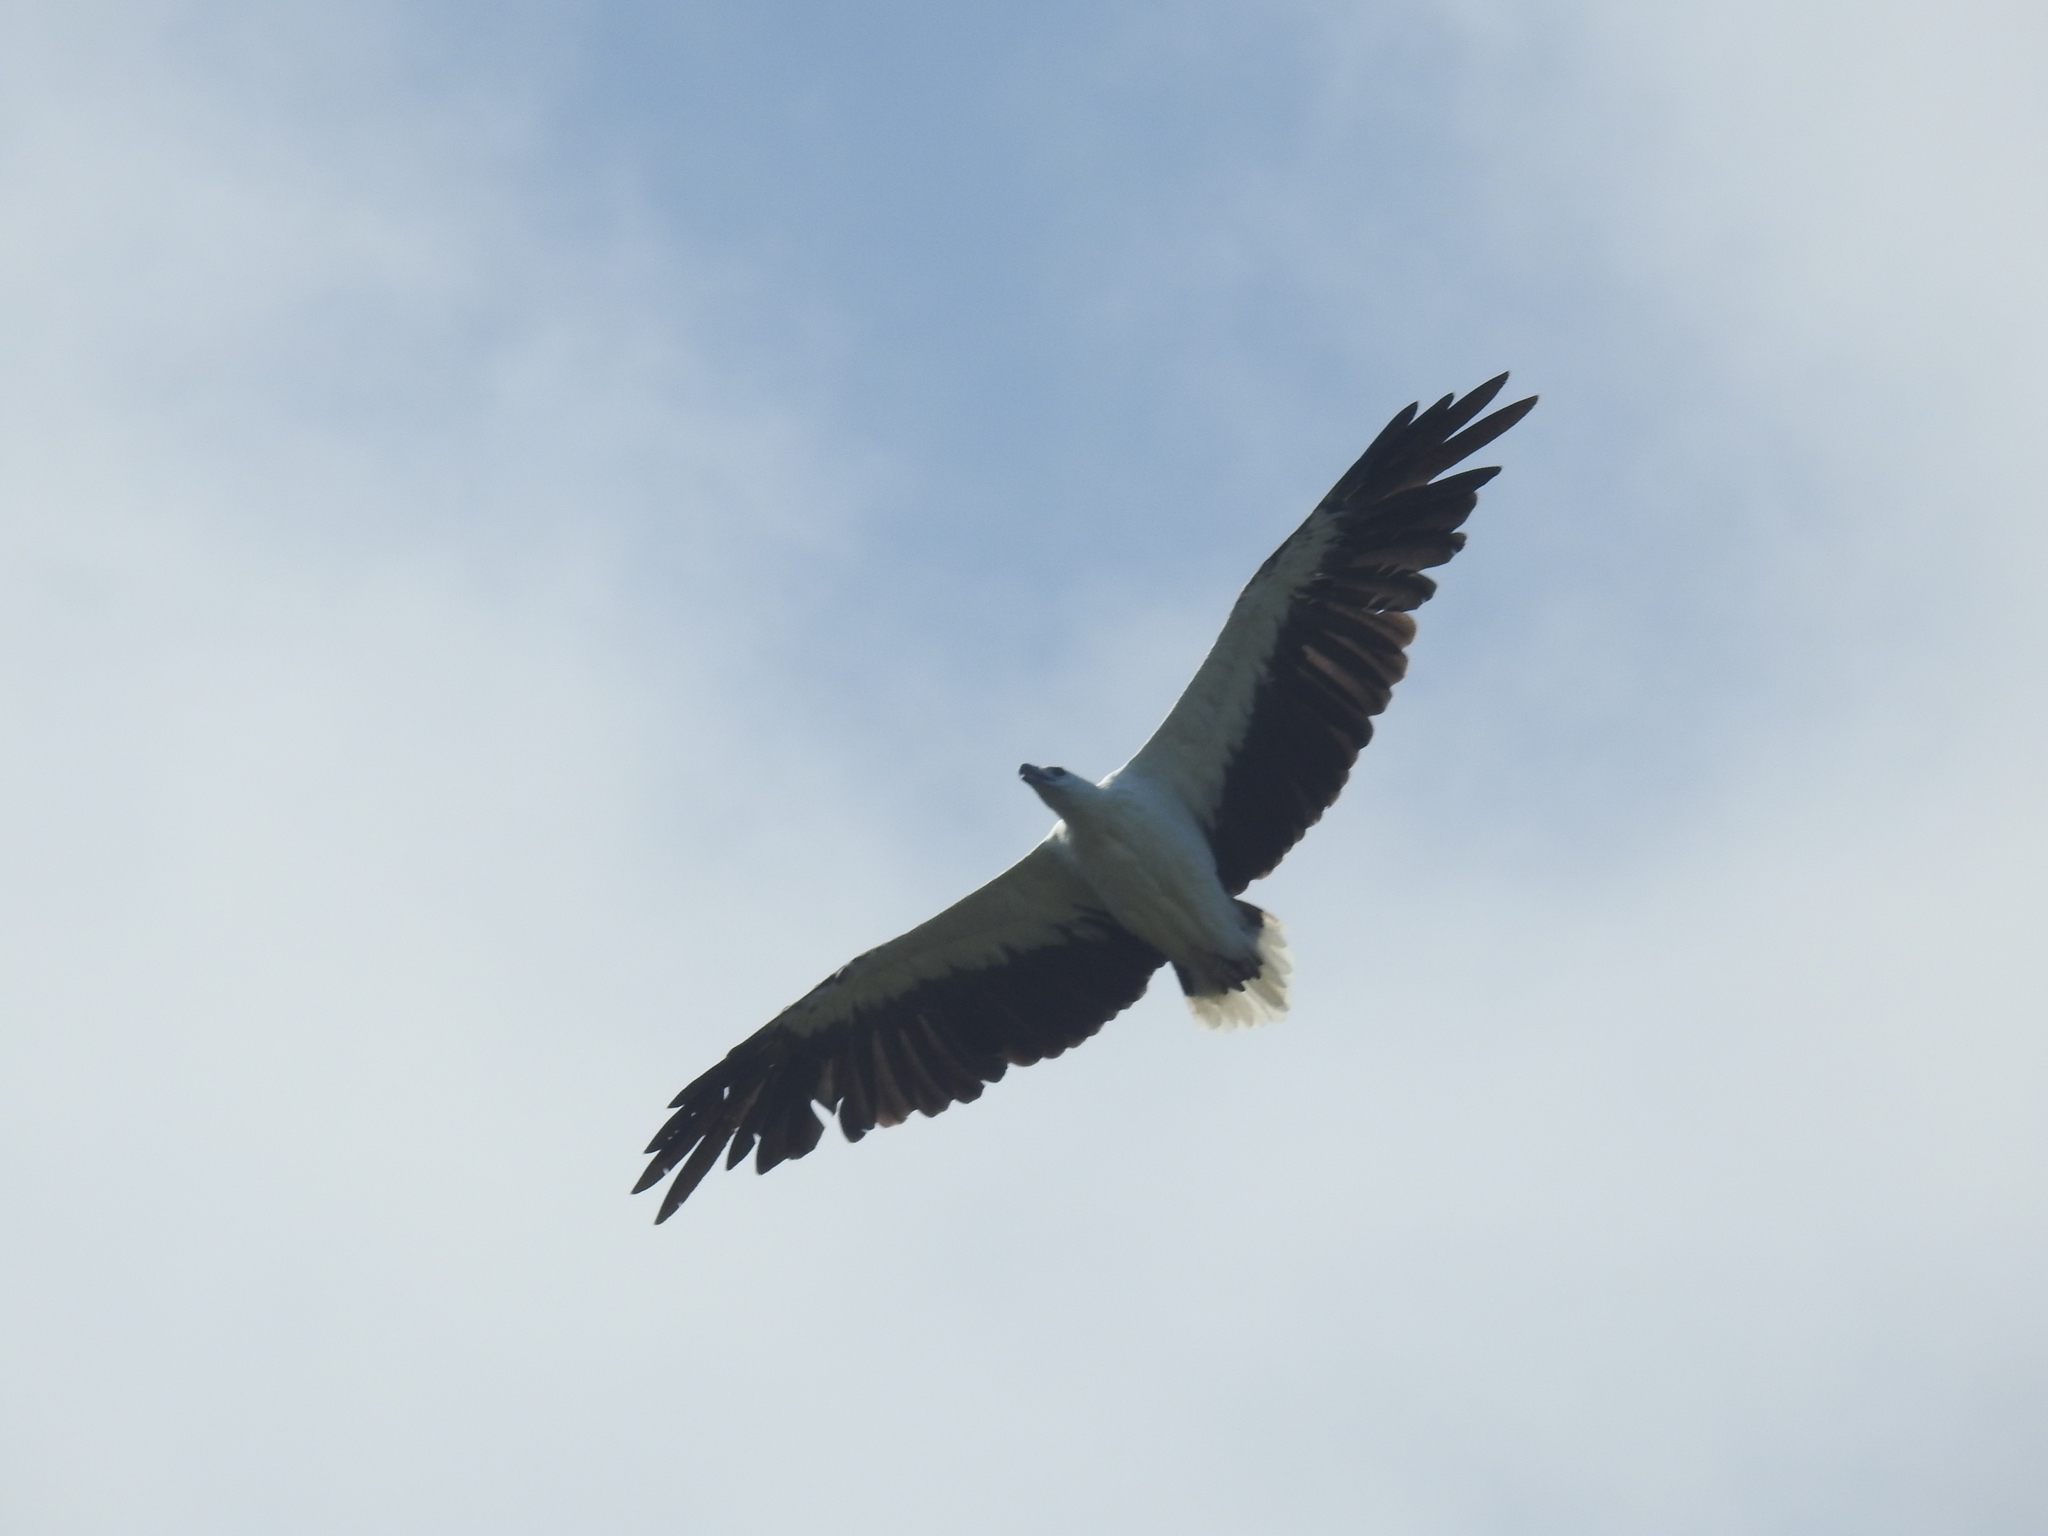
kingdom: Animalia
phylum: Chordata
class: Aves
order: Accipitriformes
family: Accipitridae
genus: Haliaeetus
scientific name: Haliaeetus leucogaster
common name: White-bellied sea eagle
